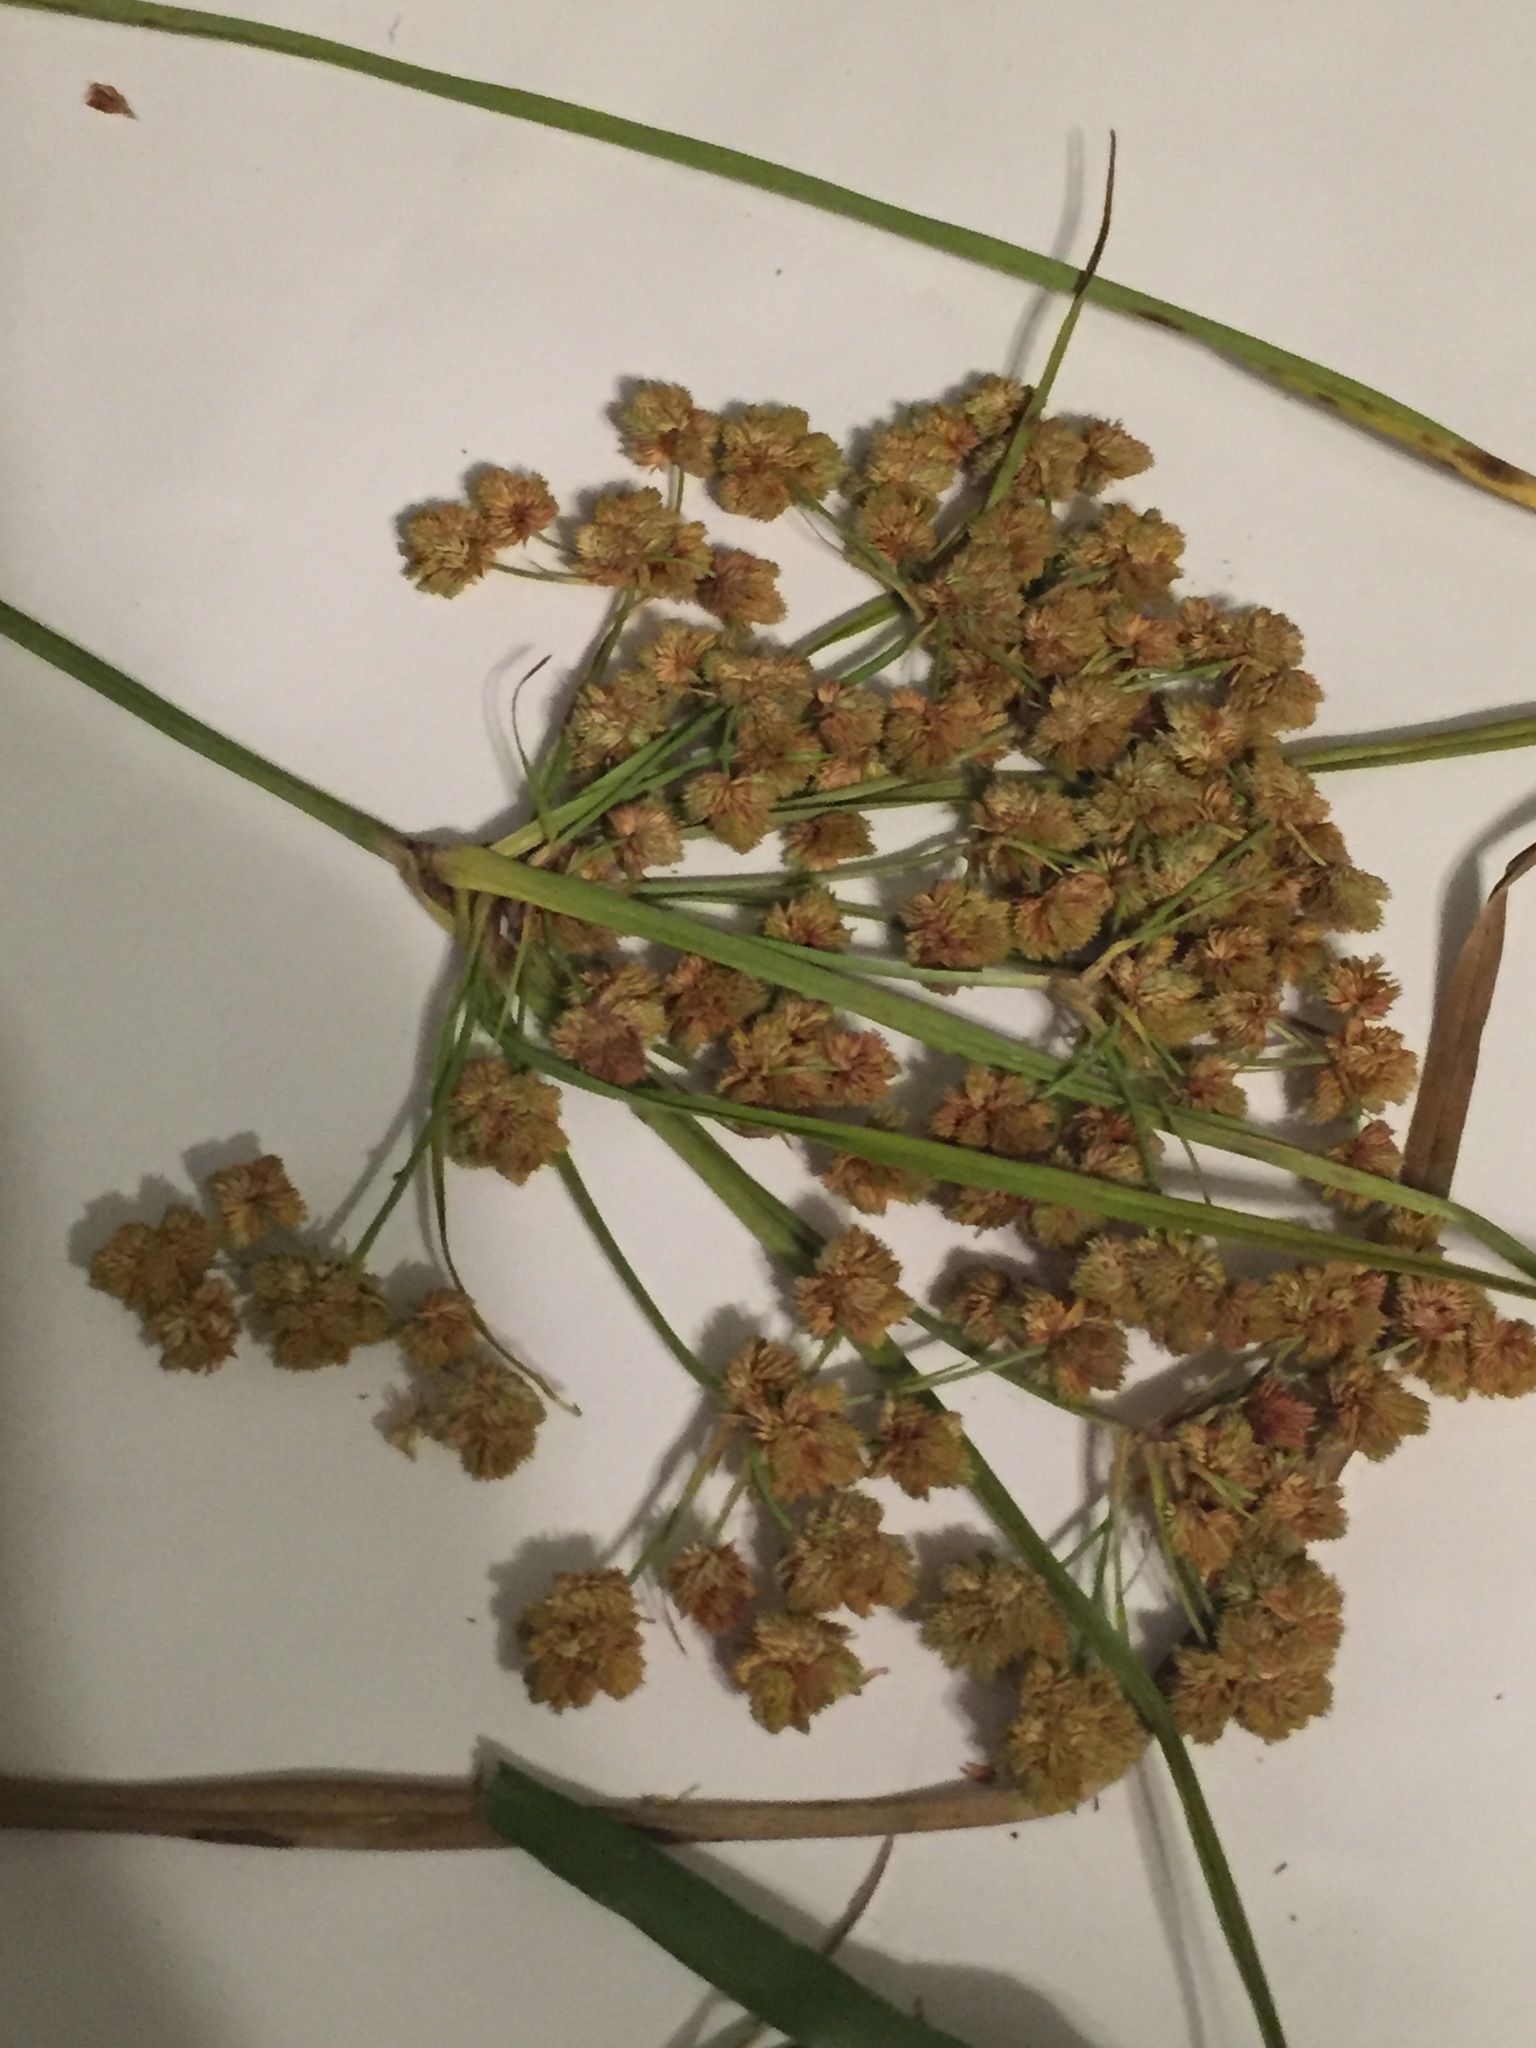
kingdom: Plantae
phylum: Tracheophyta
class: Liliopsida
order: Poales
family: Cyperaceae
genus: Cyperus
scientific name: Cyperus pseudovegetus
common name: Marsh flat sedge
